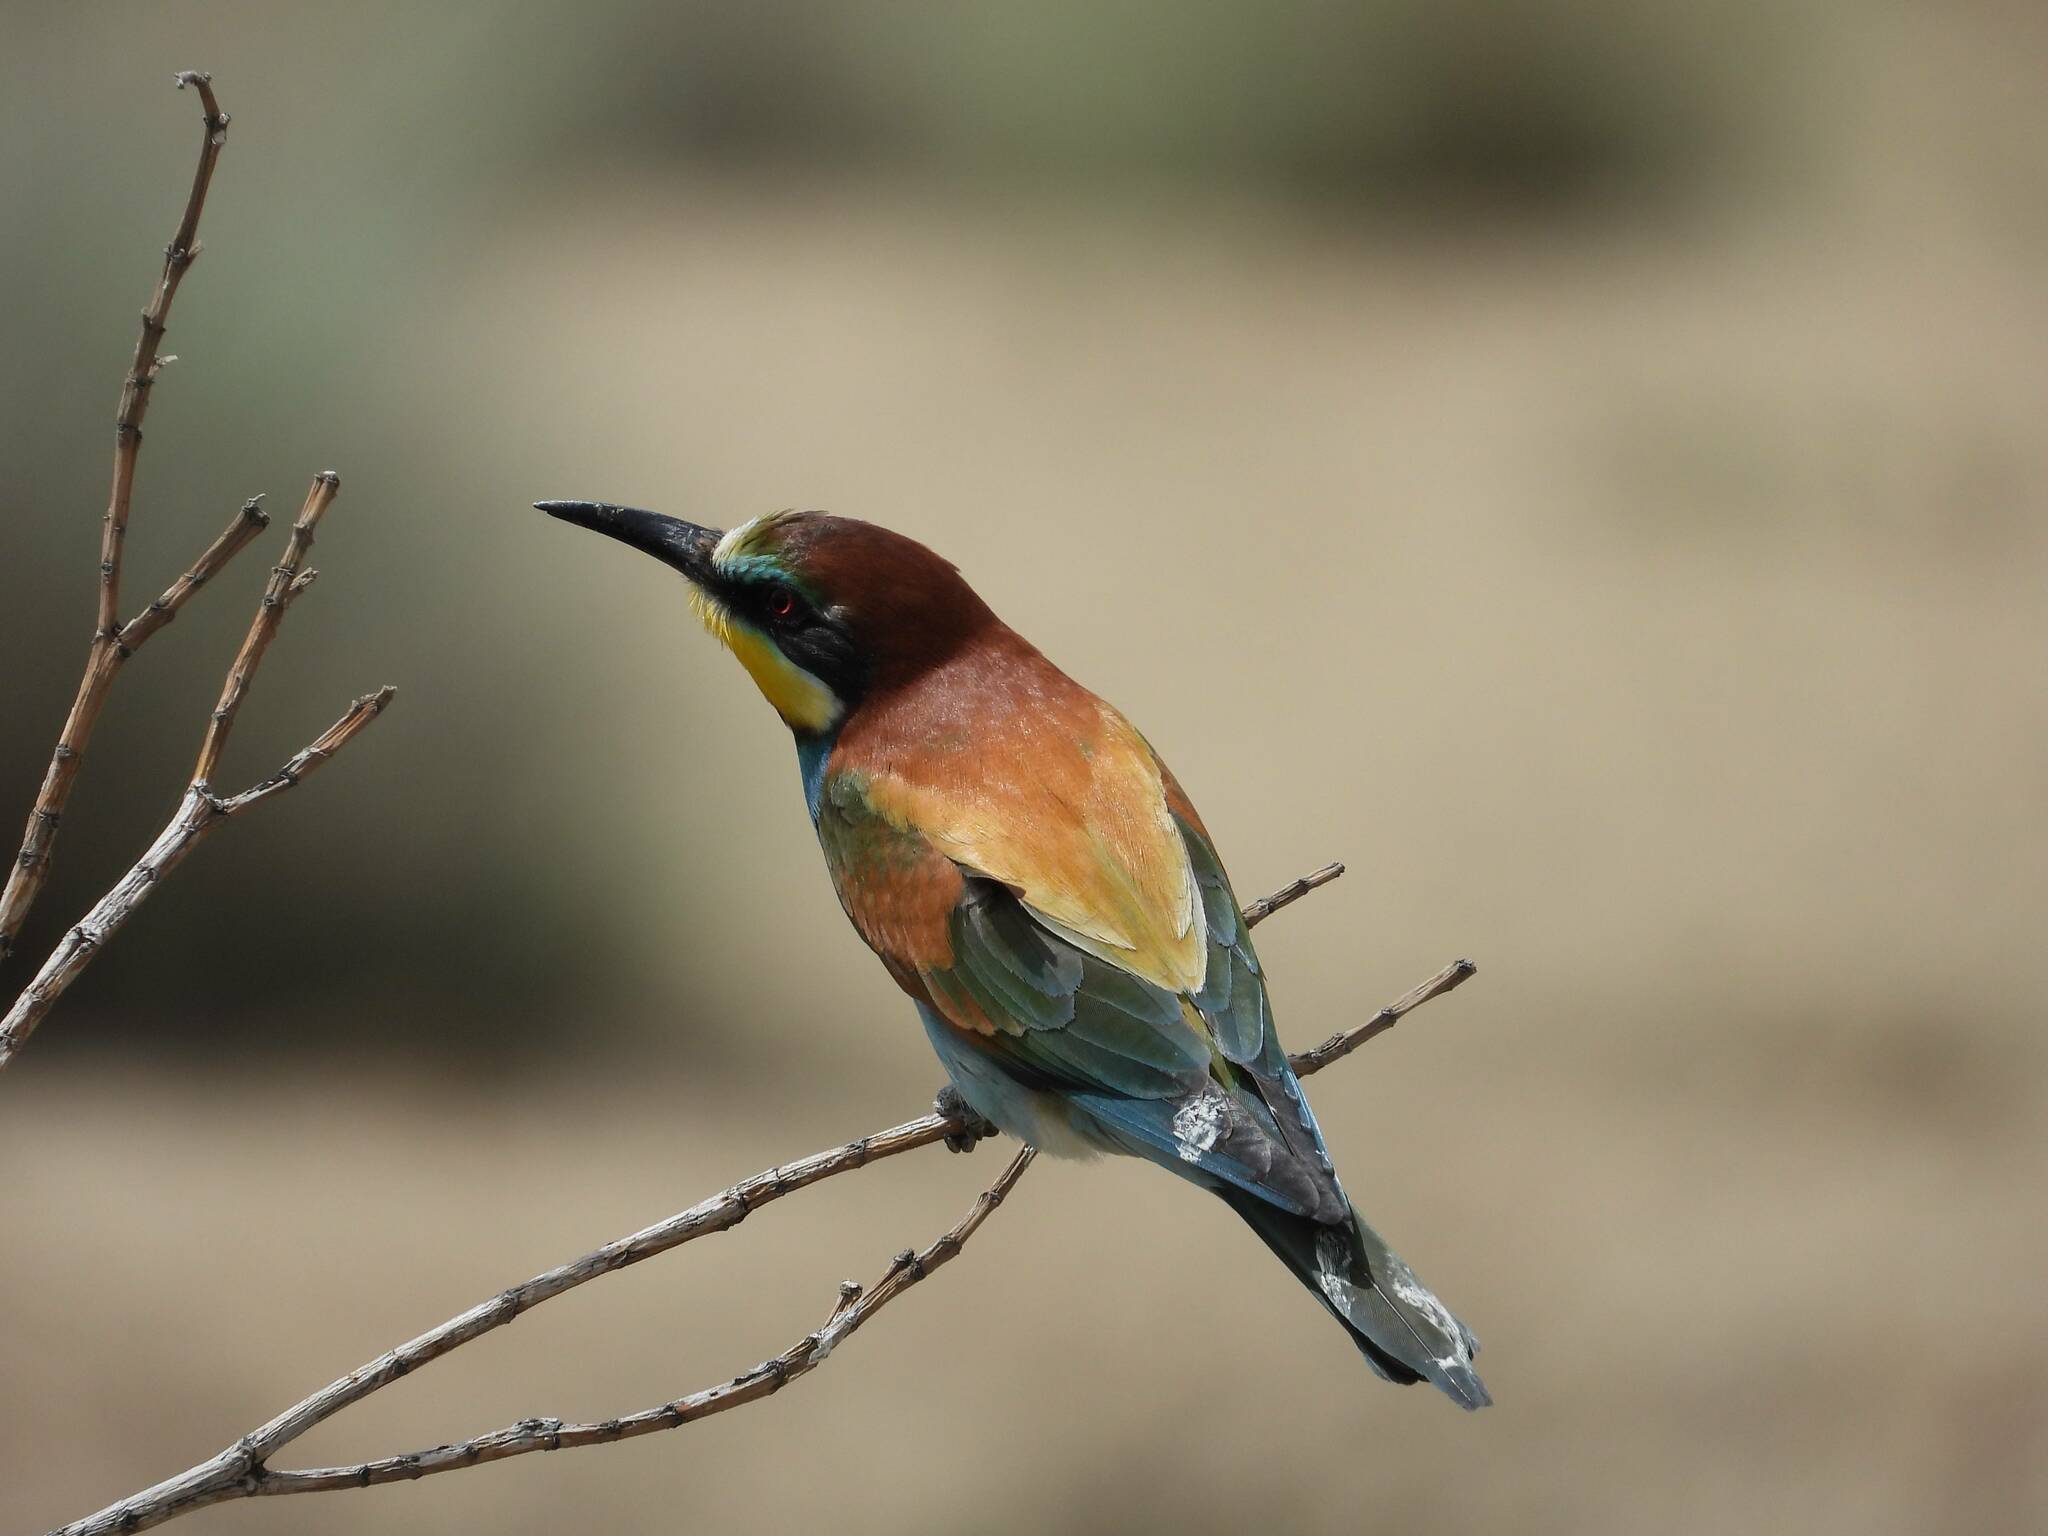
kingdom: Animalia
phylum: Chordata
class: Aves
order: Coraciiformes
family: Meropidae
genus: Merops
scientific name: Merops apiaster
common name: European bee-eater
